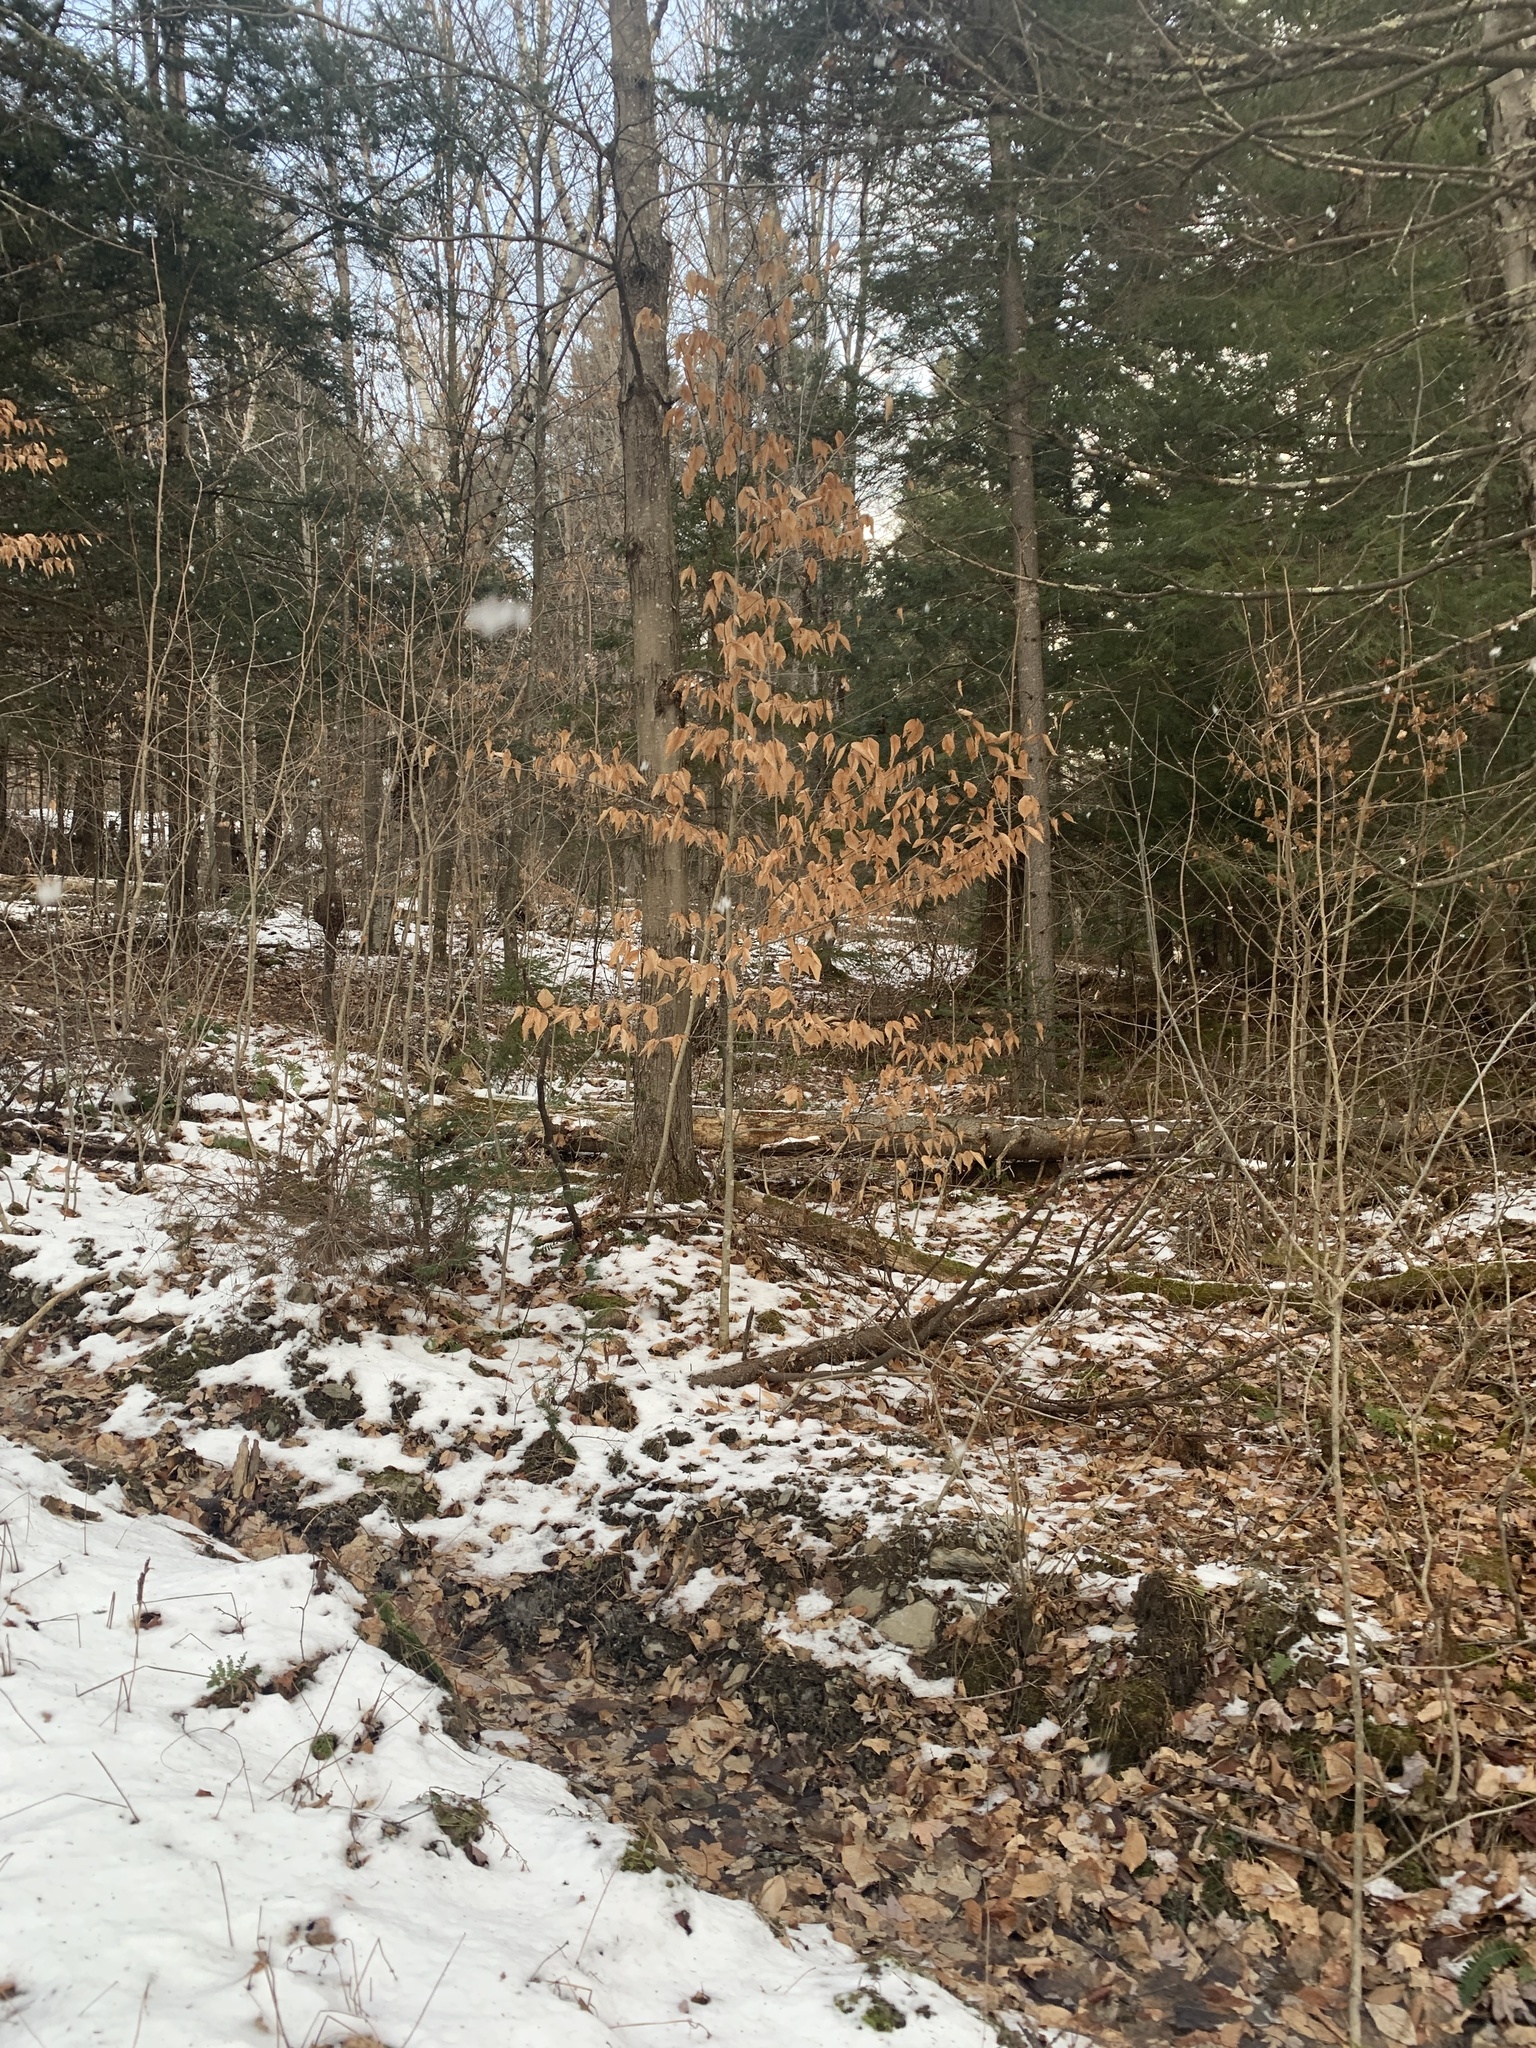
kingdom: Plantae
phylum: Tracheophyta
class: Magnoliopsida
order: Fagales
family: Fagaceae
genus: Fagus
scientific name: Fagus grandifolia
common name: American beech
